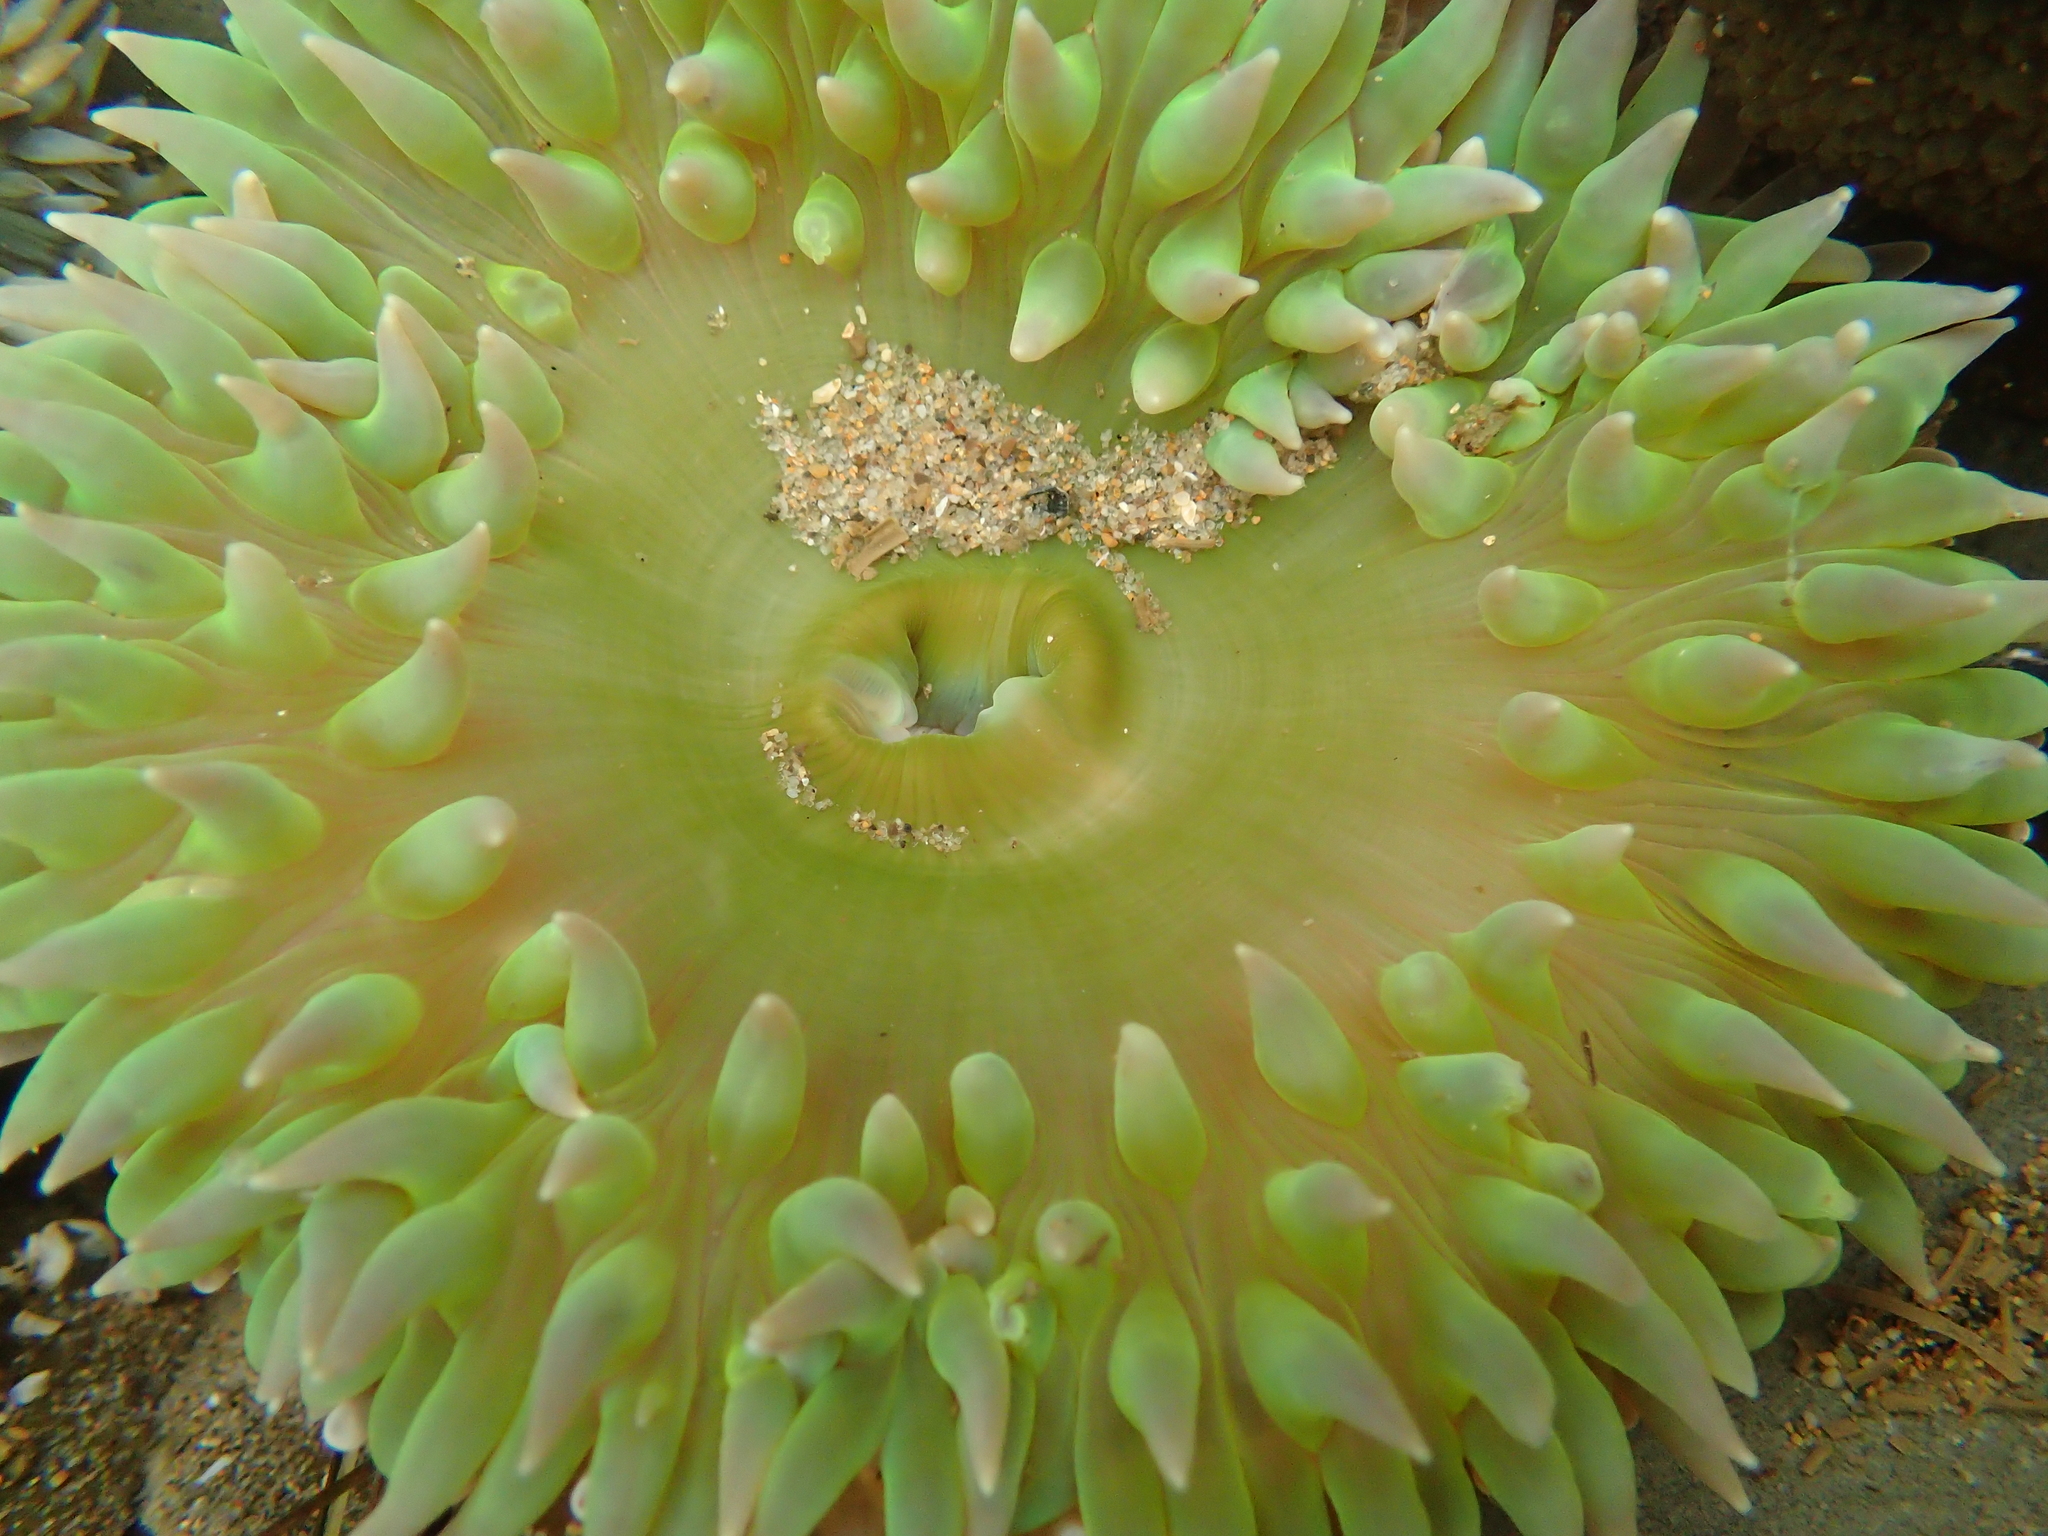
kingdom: Animalia
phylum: Cnidaria
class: Anthozoa
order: Actiniaria
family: Actiniidae
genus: Anthopleura
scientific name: Anthopleura xanthogrammica
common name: Giant green anemone
